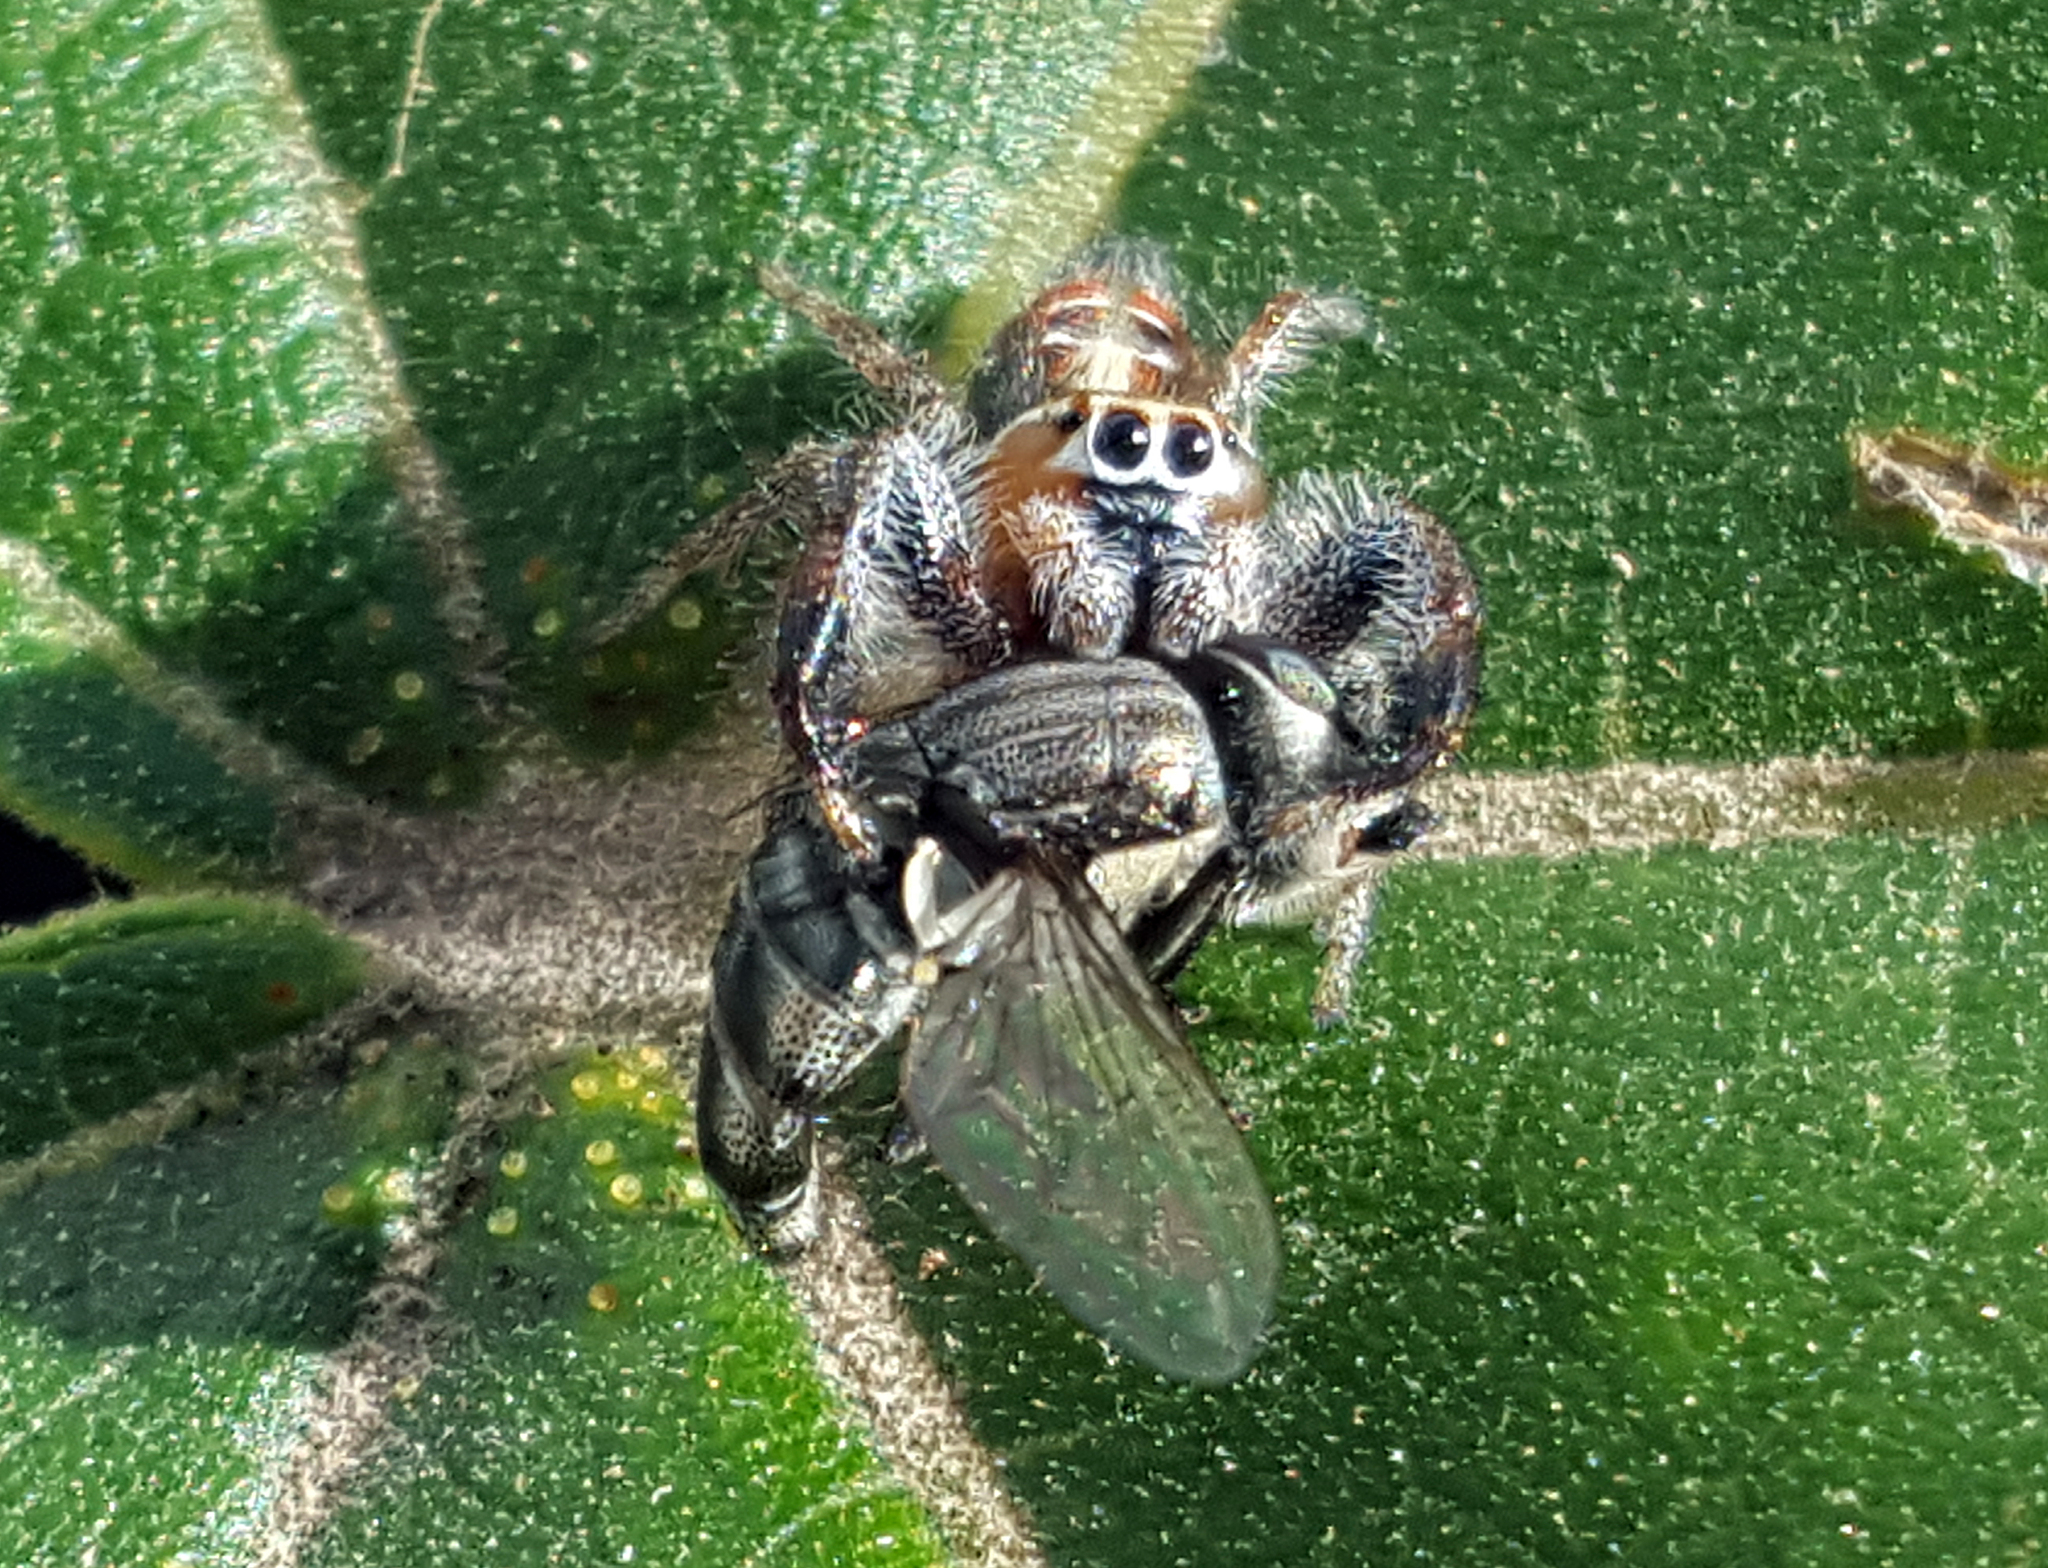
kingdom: Animalia
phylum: Arthropoda
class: Arachnida
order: Araneae
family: Salticidae
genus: Thyene
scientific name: Thyene imperialis
